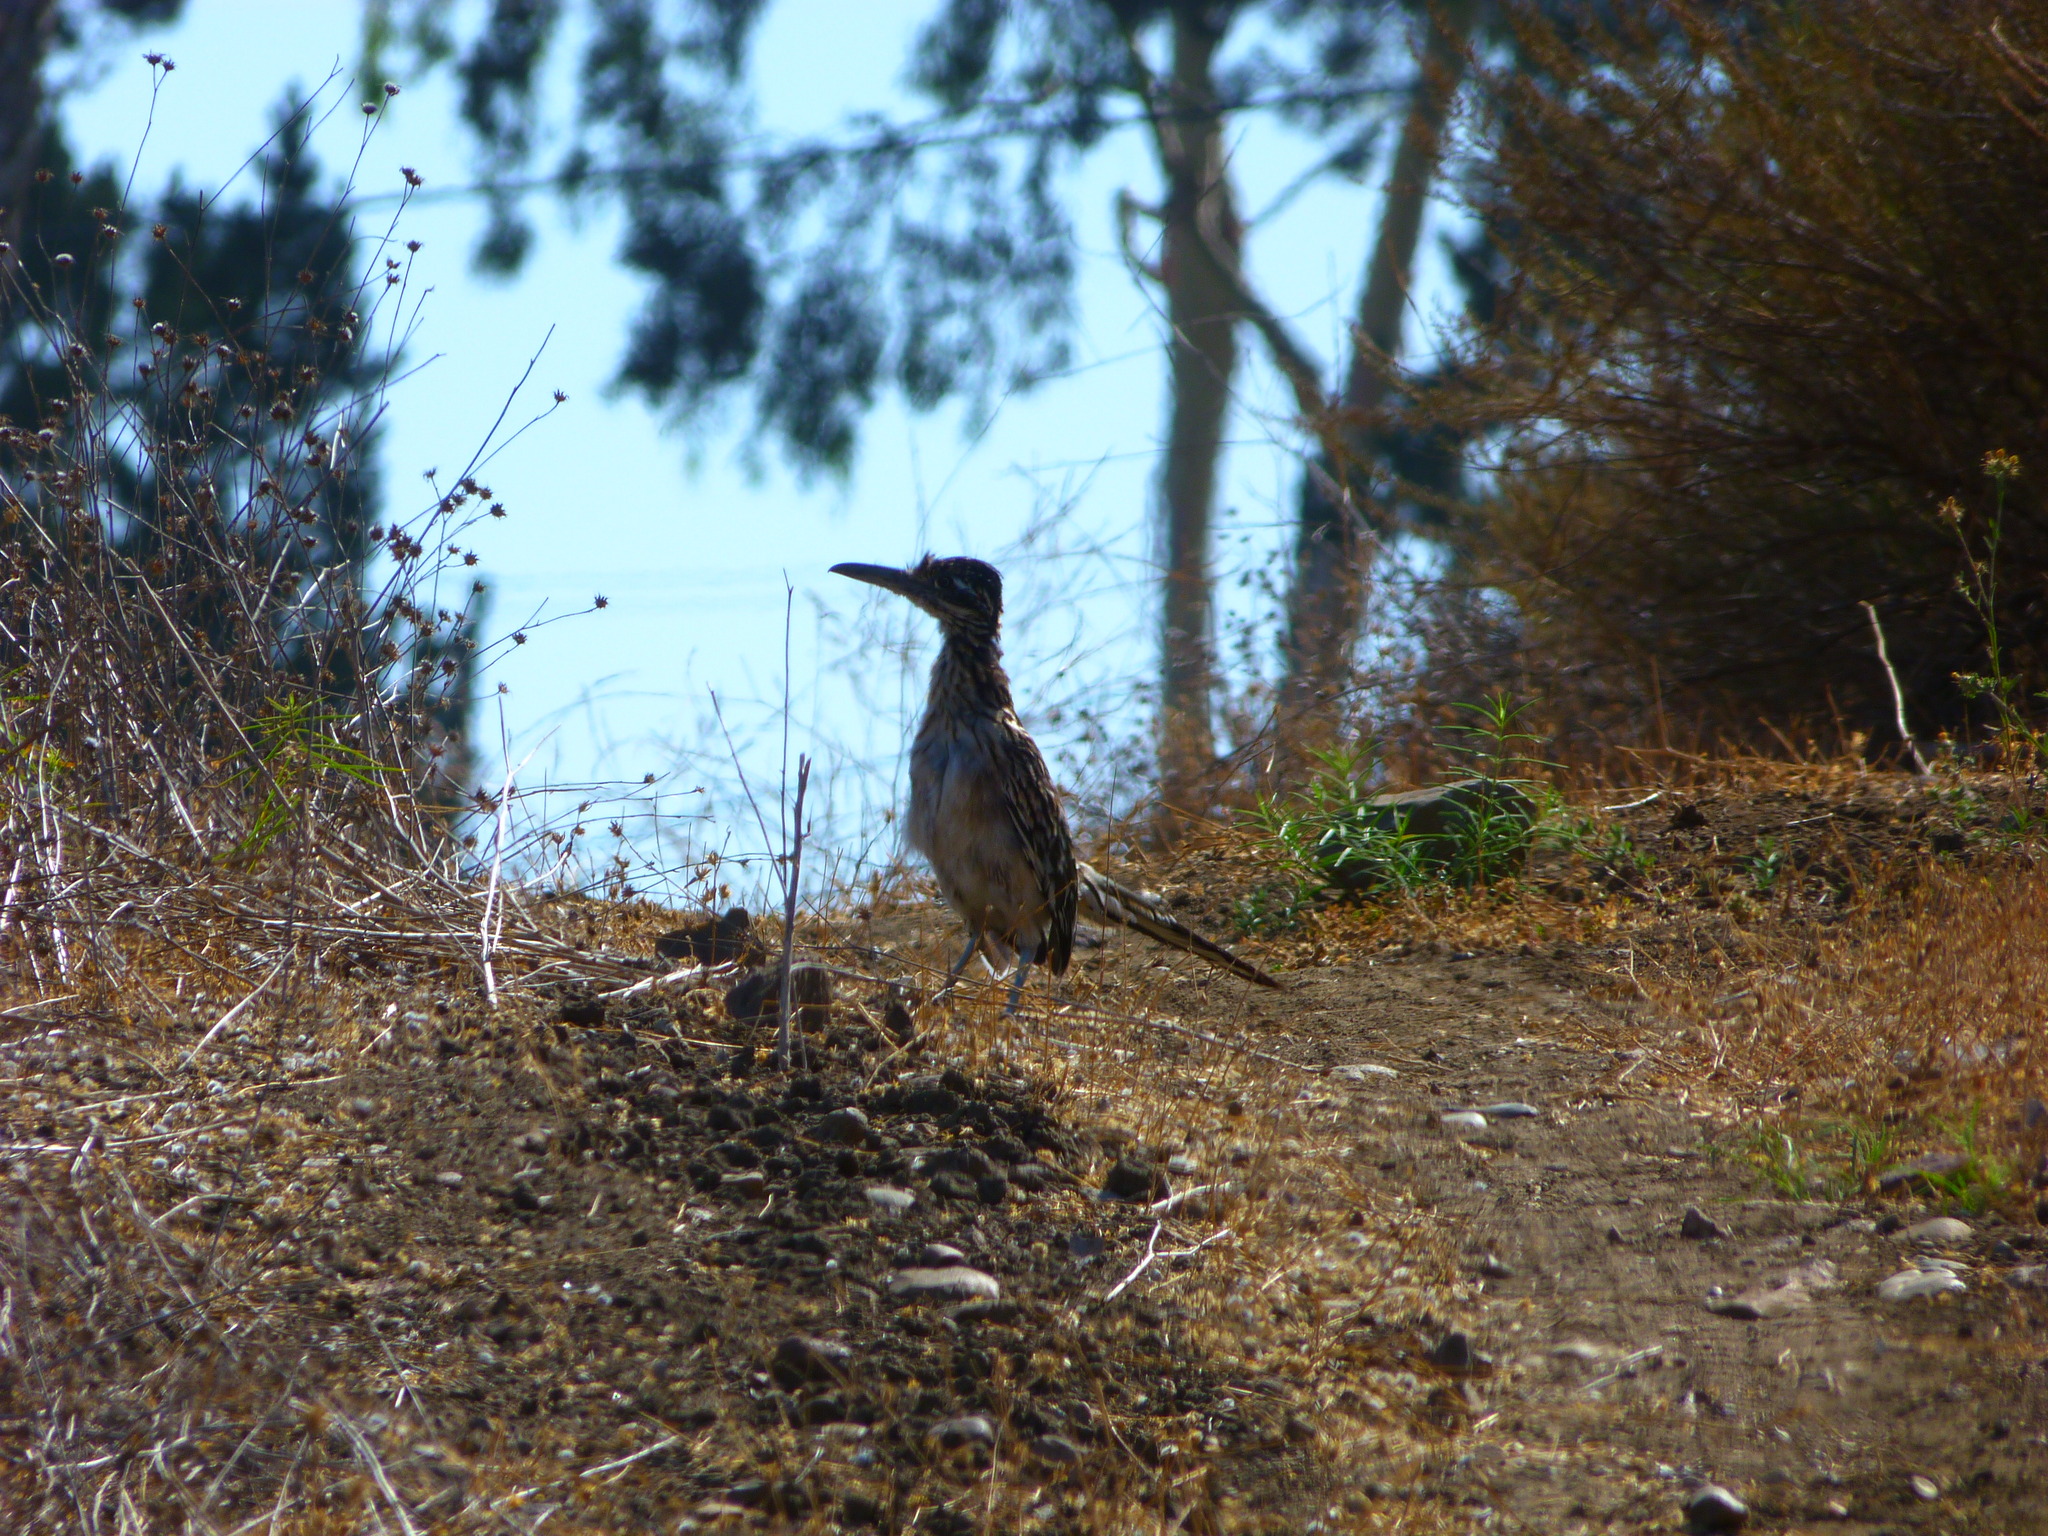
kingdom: Animalia
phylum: Chordata
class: Aves
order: Cuculiformes
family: Cuculidae
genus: Geococcyx
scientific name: Geococcyx californianus
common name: Greater roadrunner
